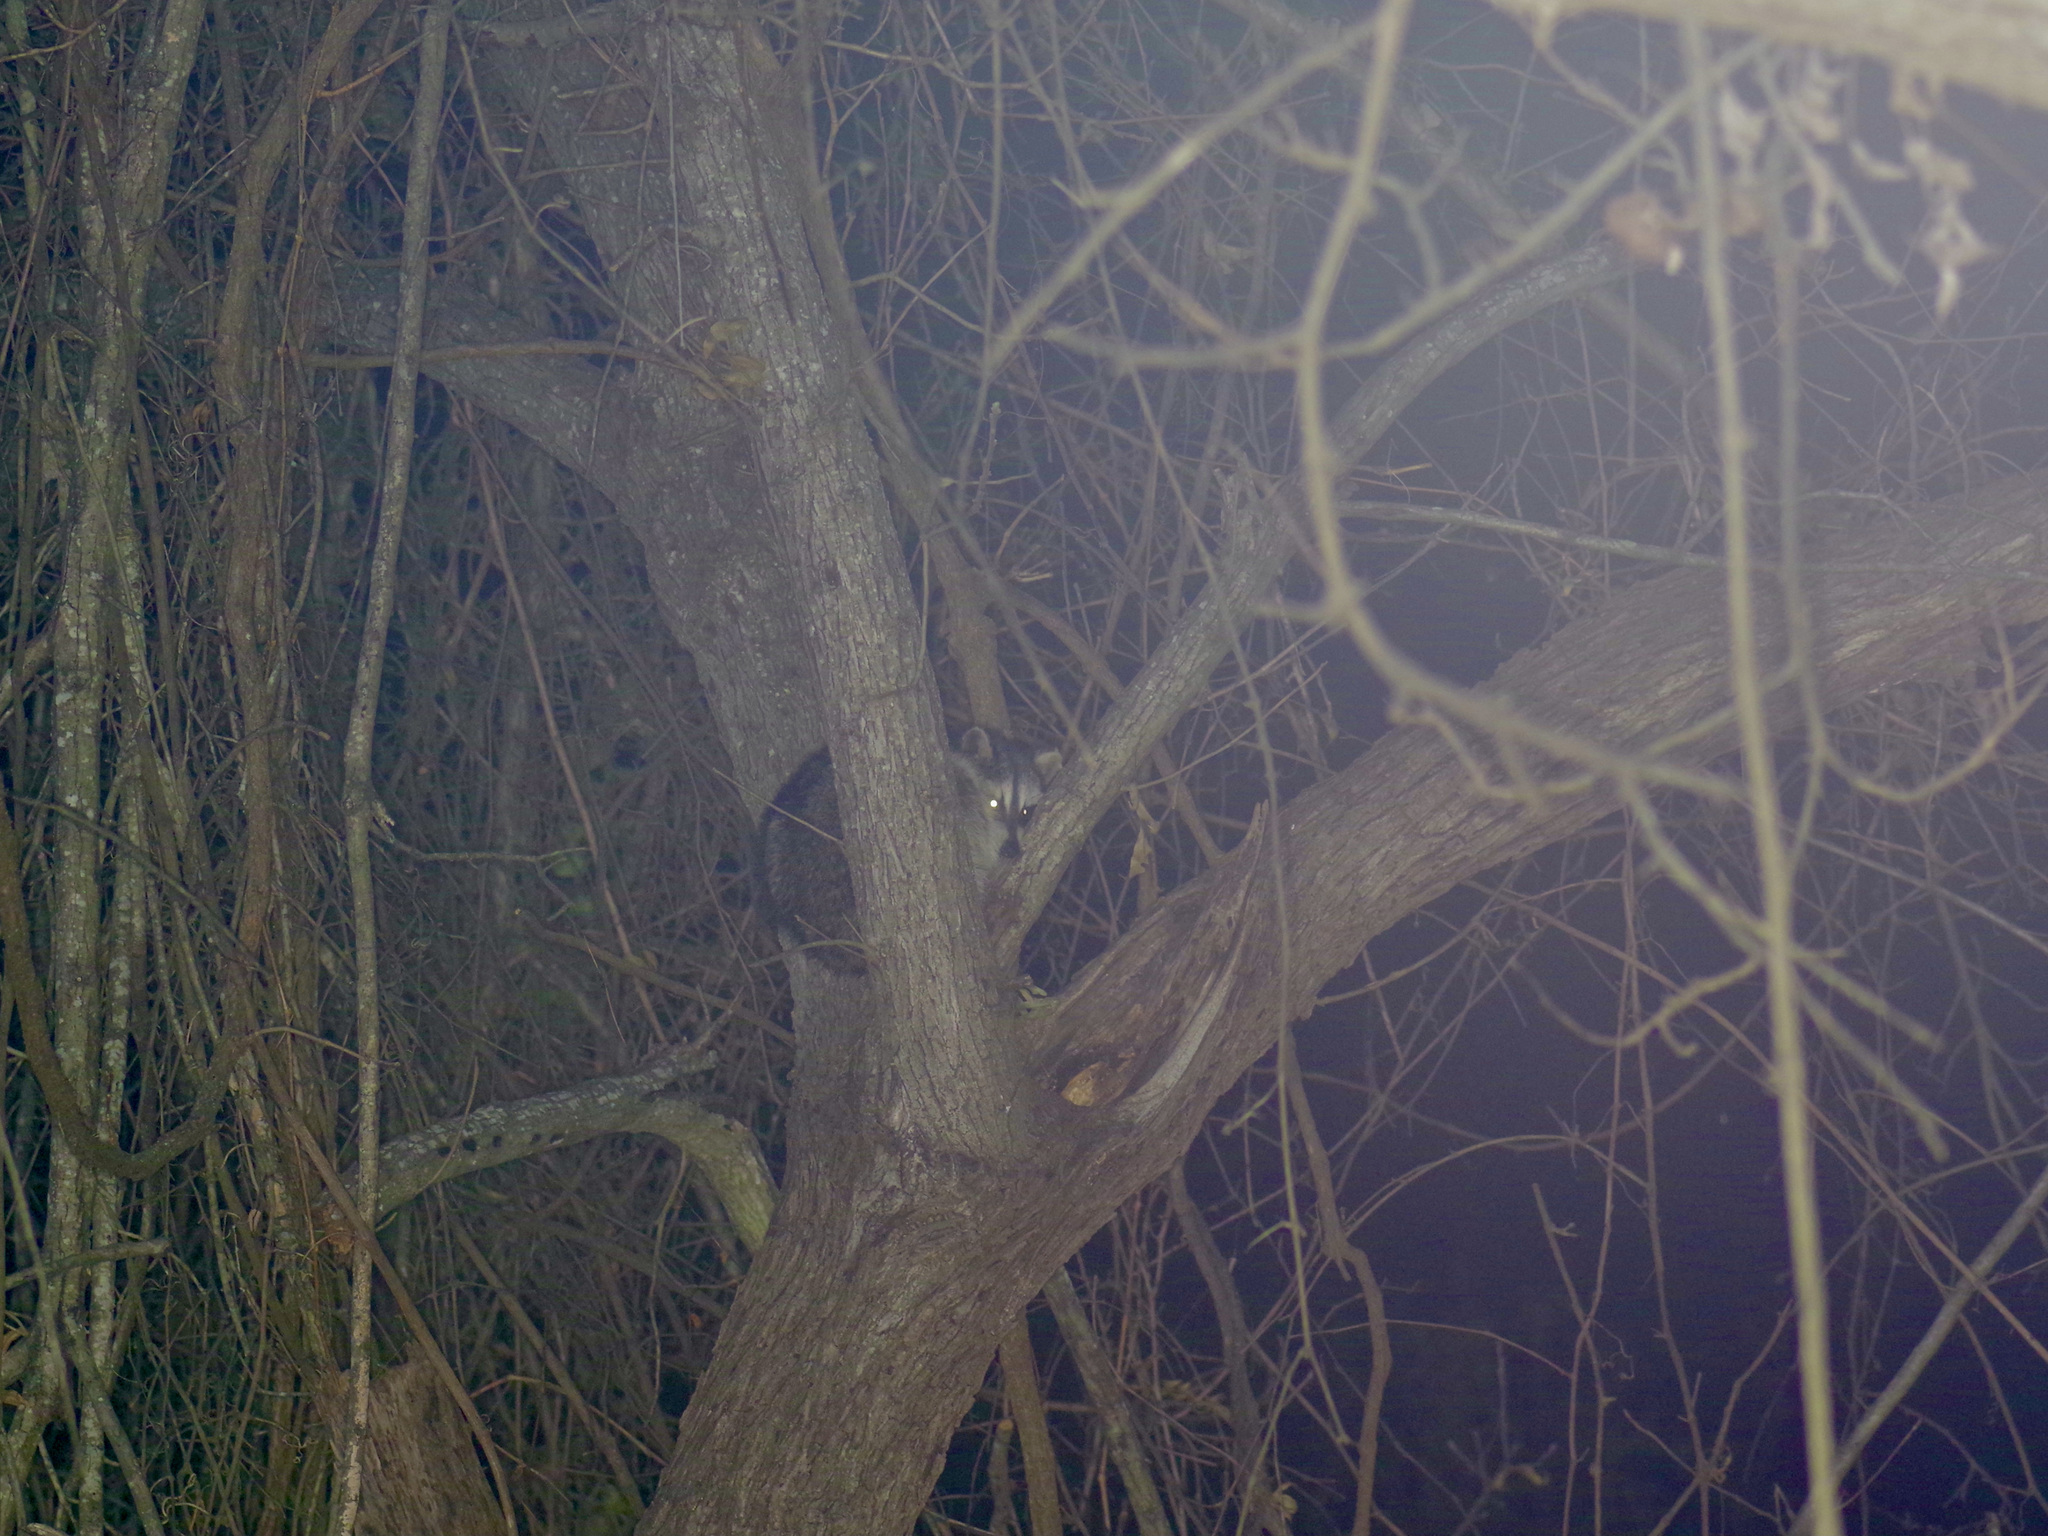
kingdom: Animalia
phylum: Chordata
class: Mammalia
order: Carnivora
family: Procyonidae
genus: Procyon
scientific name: Procyon lotor
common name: Raccoon
